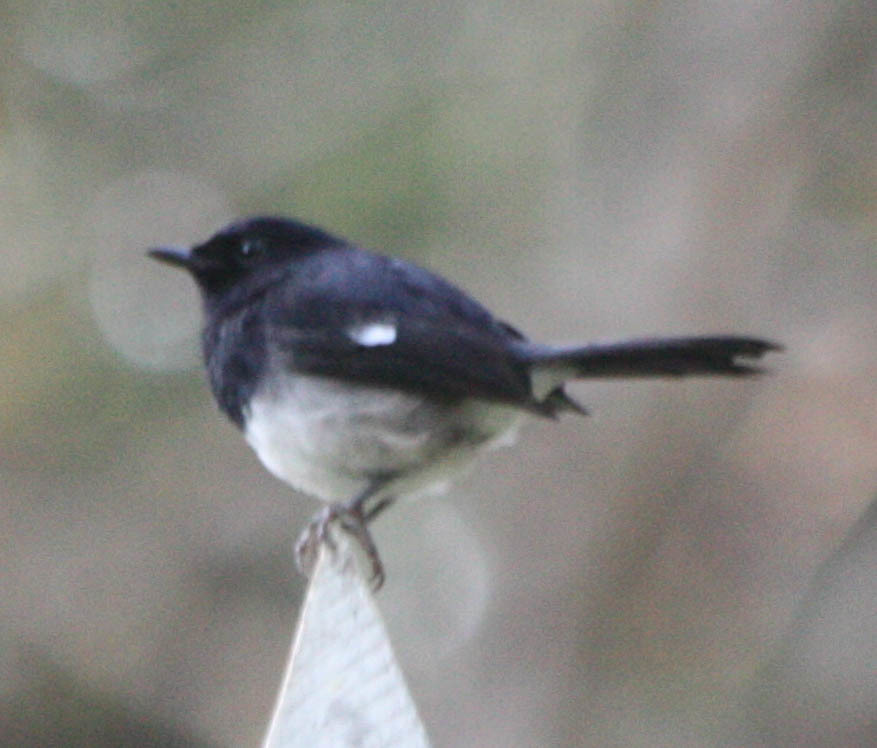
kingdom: Animalia
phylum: Chordata
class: Aves
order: Passeriformes
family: Muscicapidae
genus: Copsychus
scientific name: Copsychus albospecularis
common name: Madagascar magpie-robin
